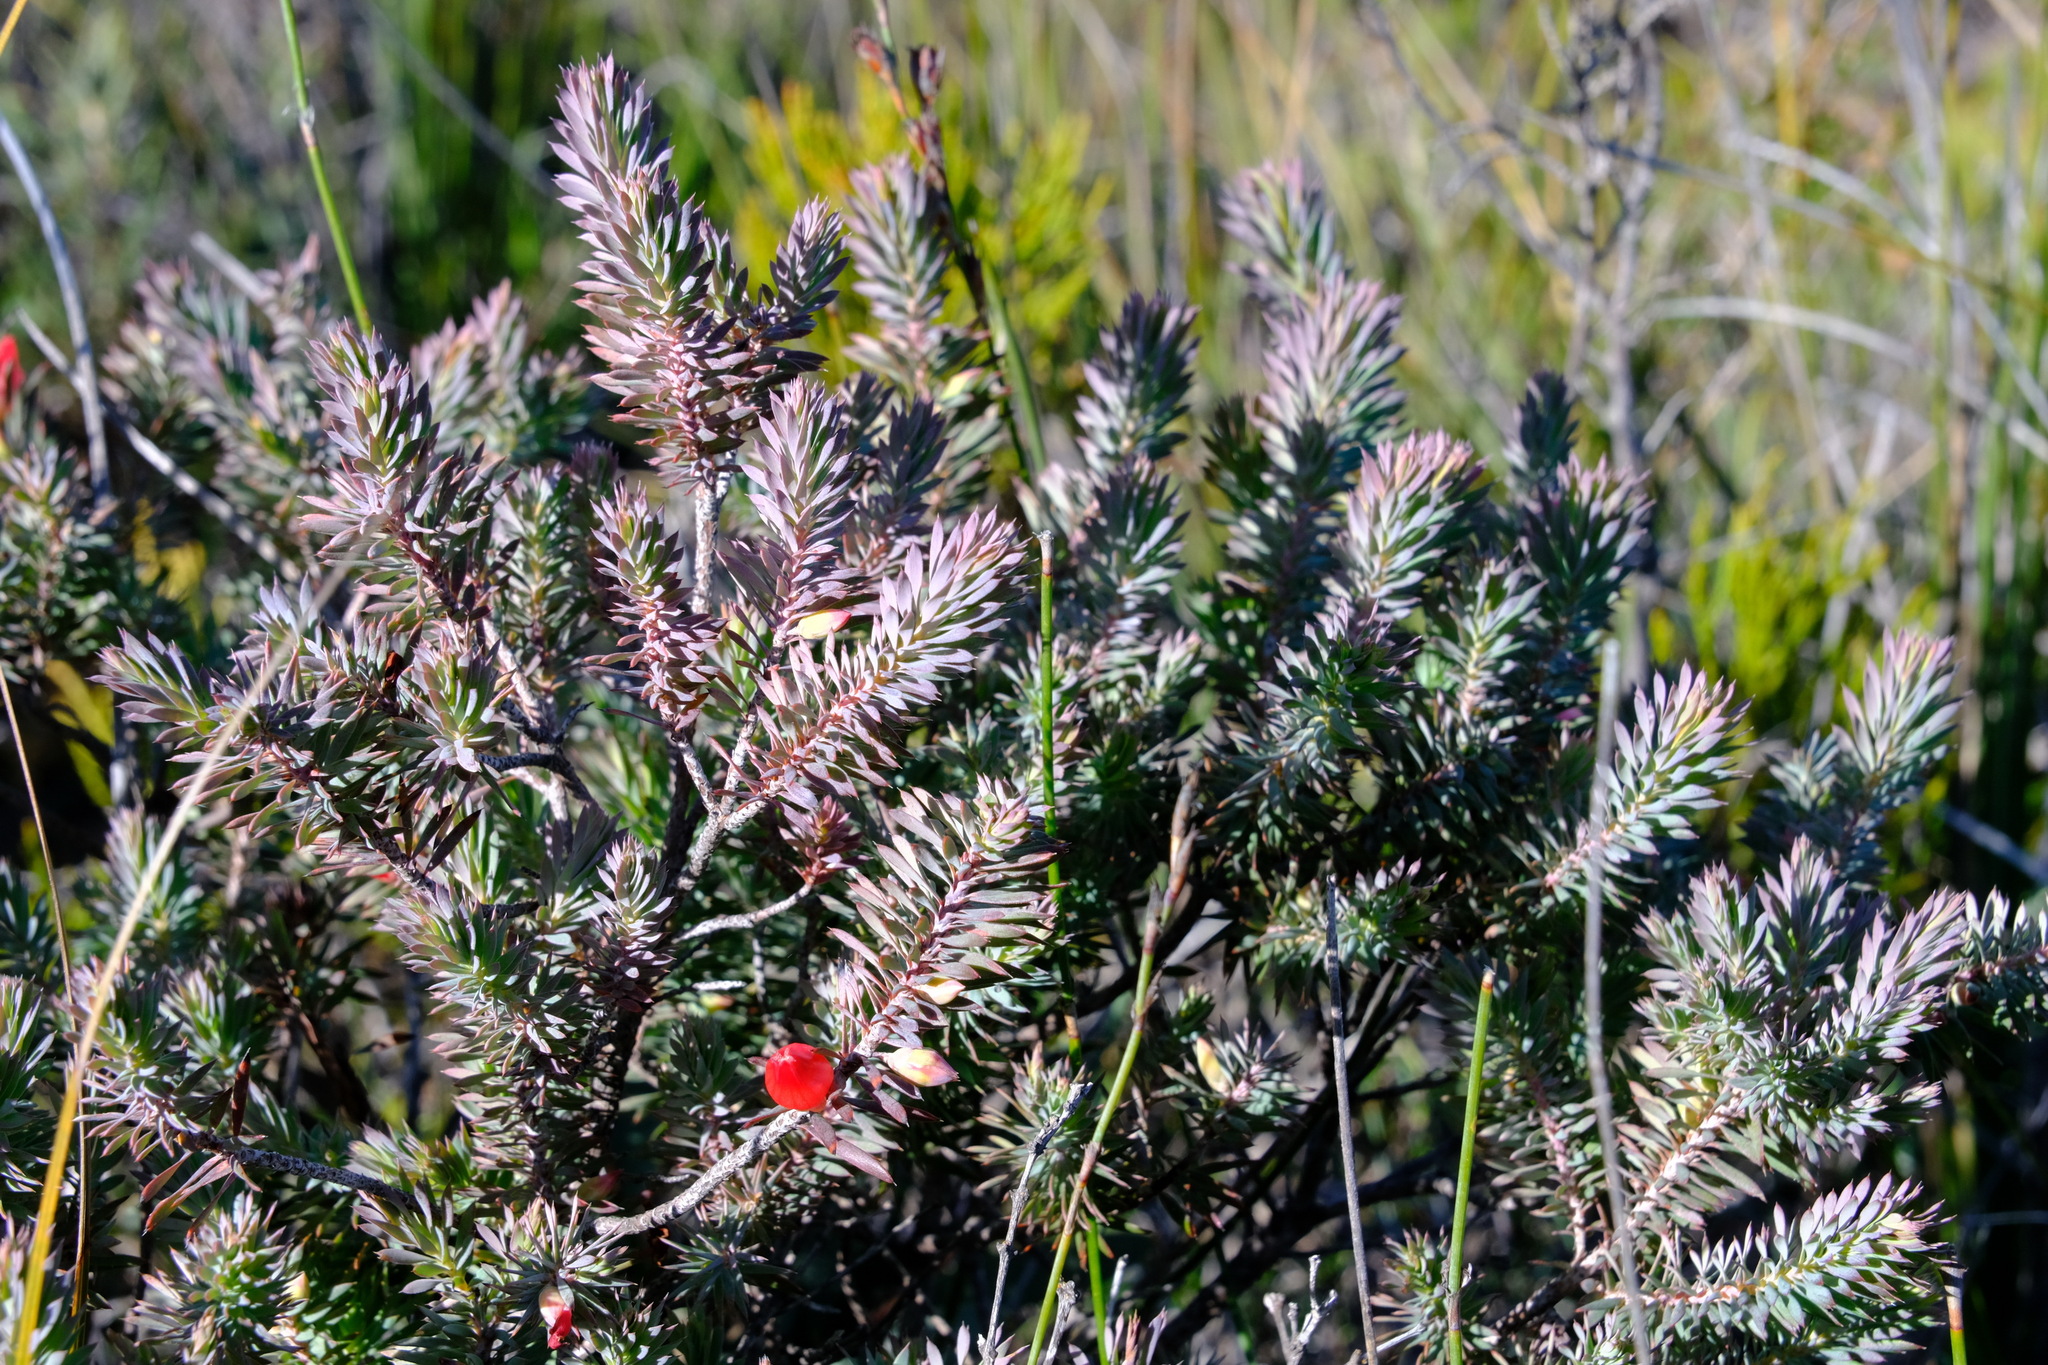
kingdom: Plantae
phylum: Tracheophyta
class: Magnoliopsida
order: Ericales
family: Ericaceae
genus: Styphelia
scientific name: Styphelia tortifolia
